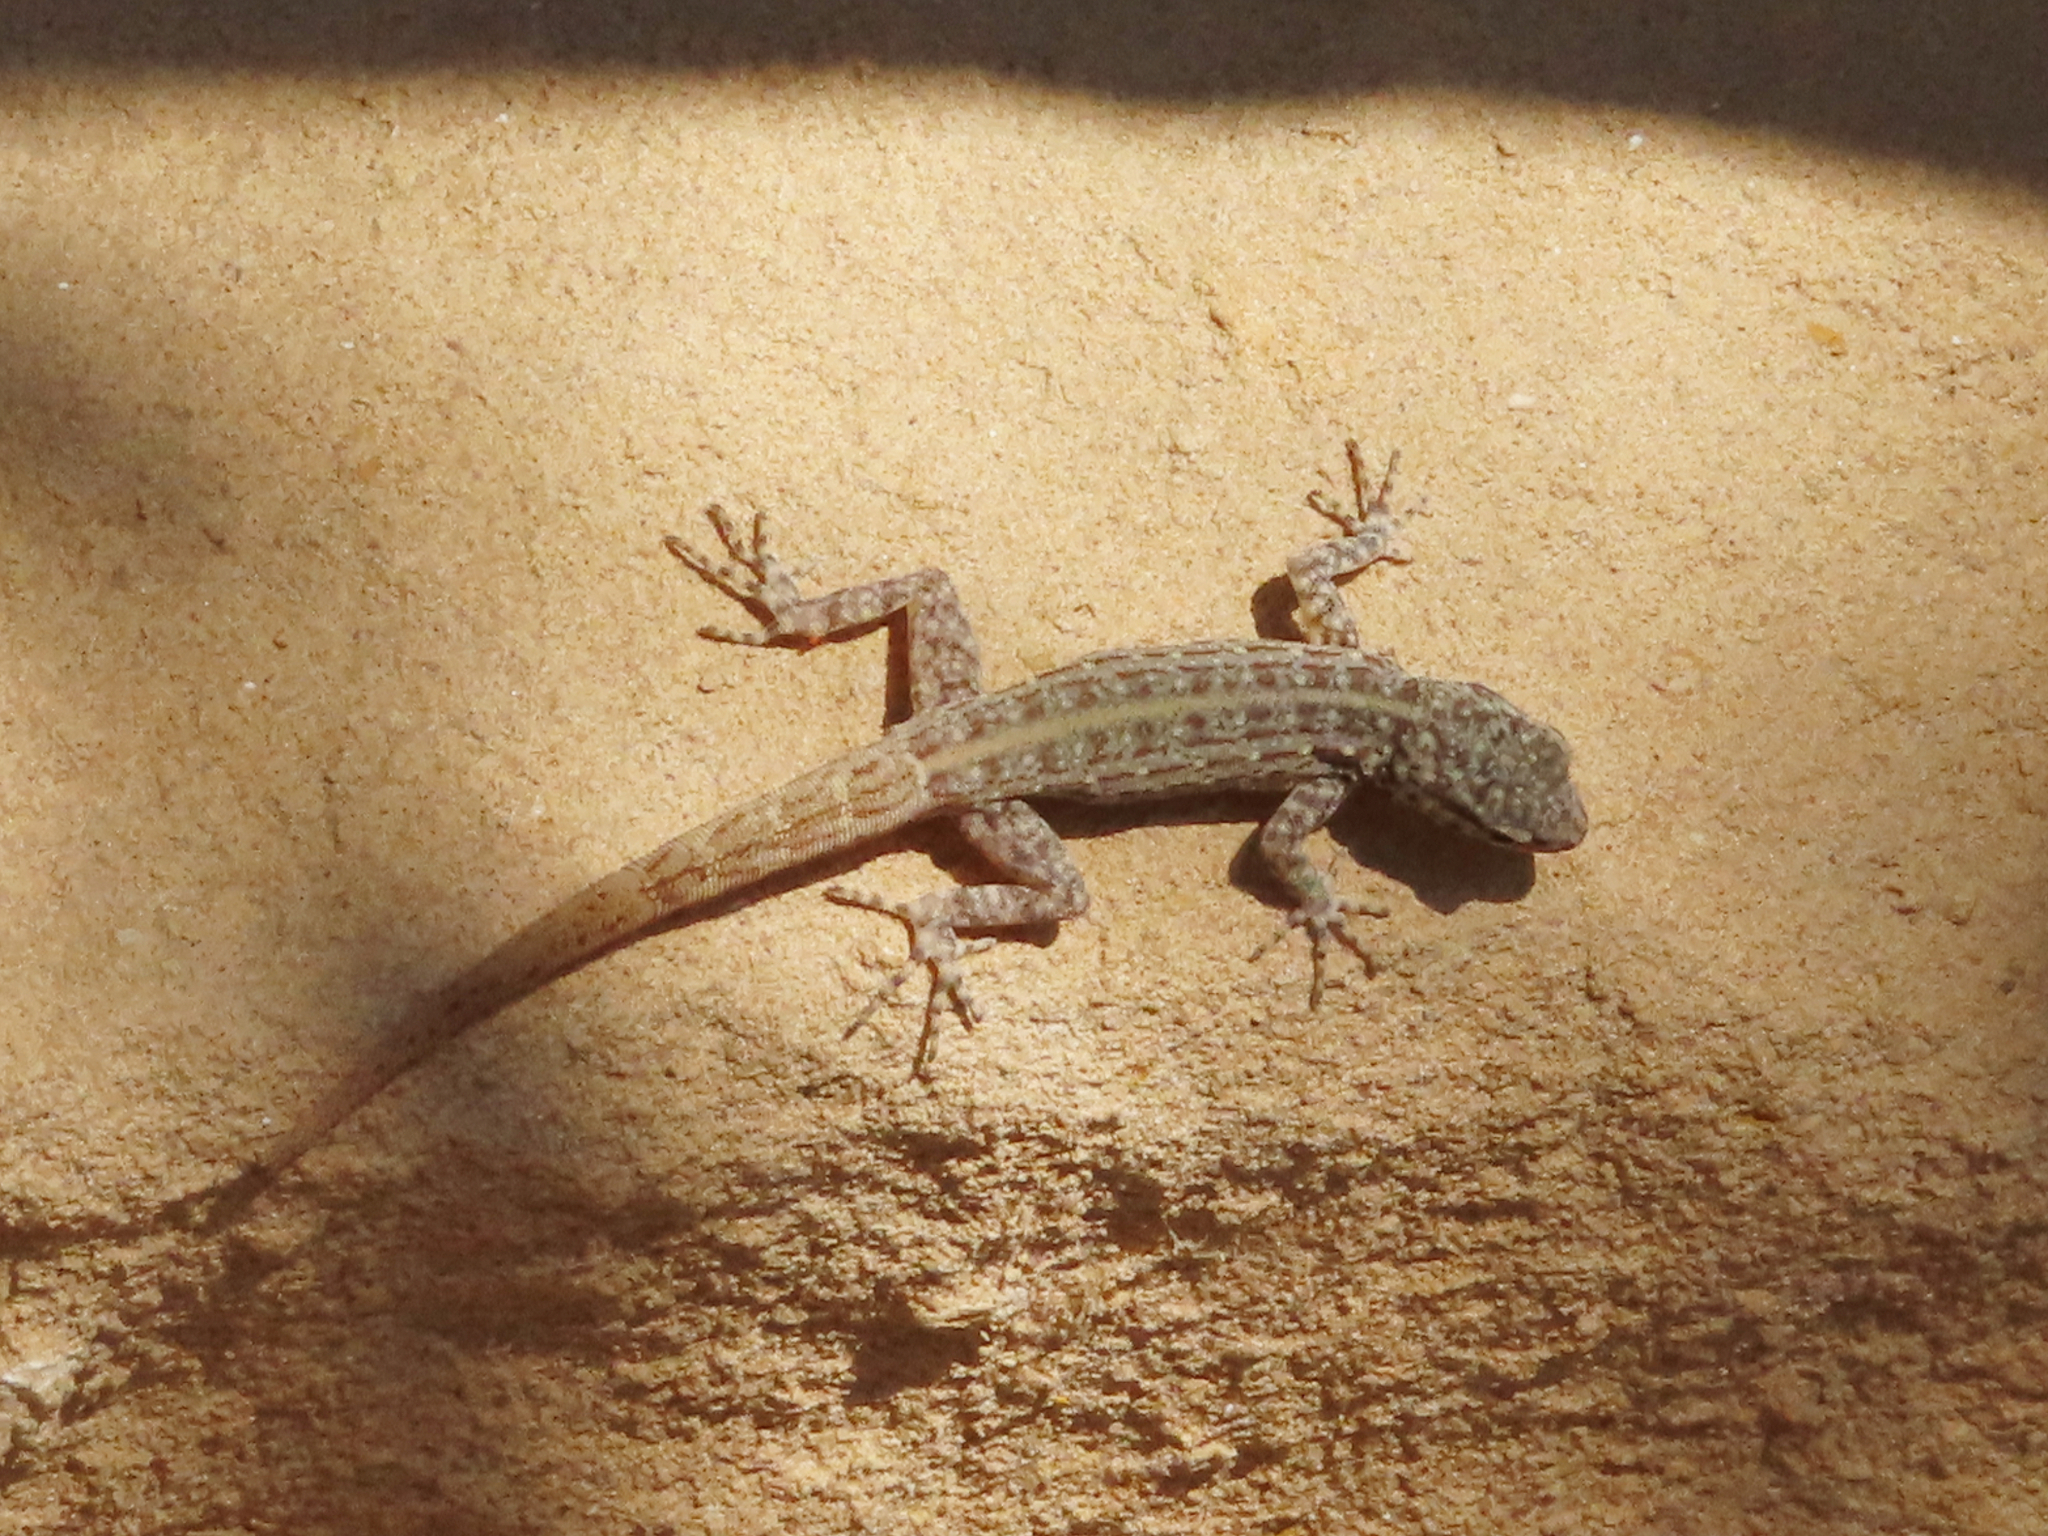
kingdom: Animalia
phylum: Chordata
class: Squamata
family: Sphaerodactylidae
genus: Pristurus
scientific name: Pristurus rupestris
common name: Blanford’s semaphore gecko
